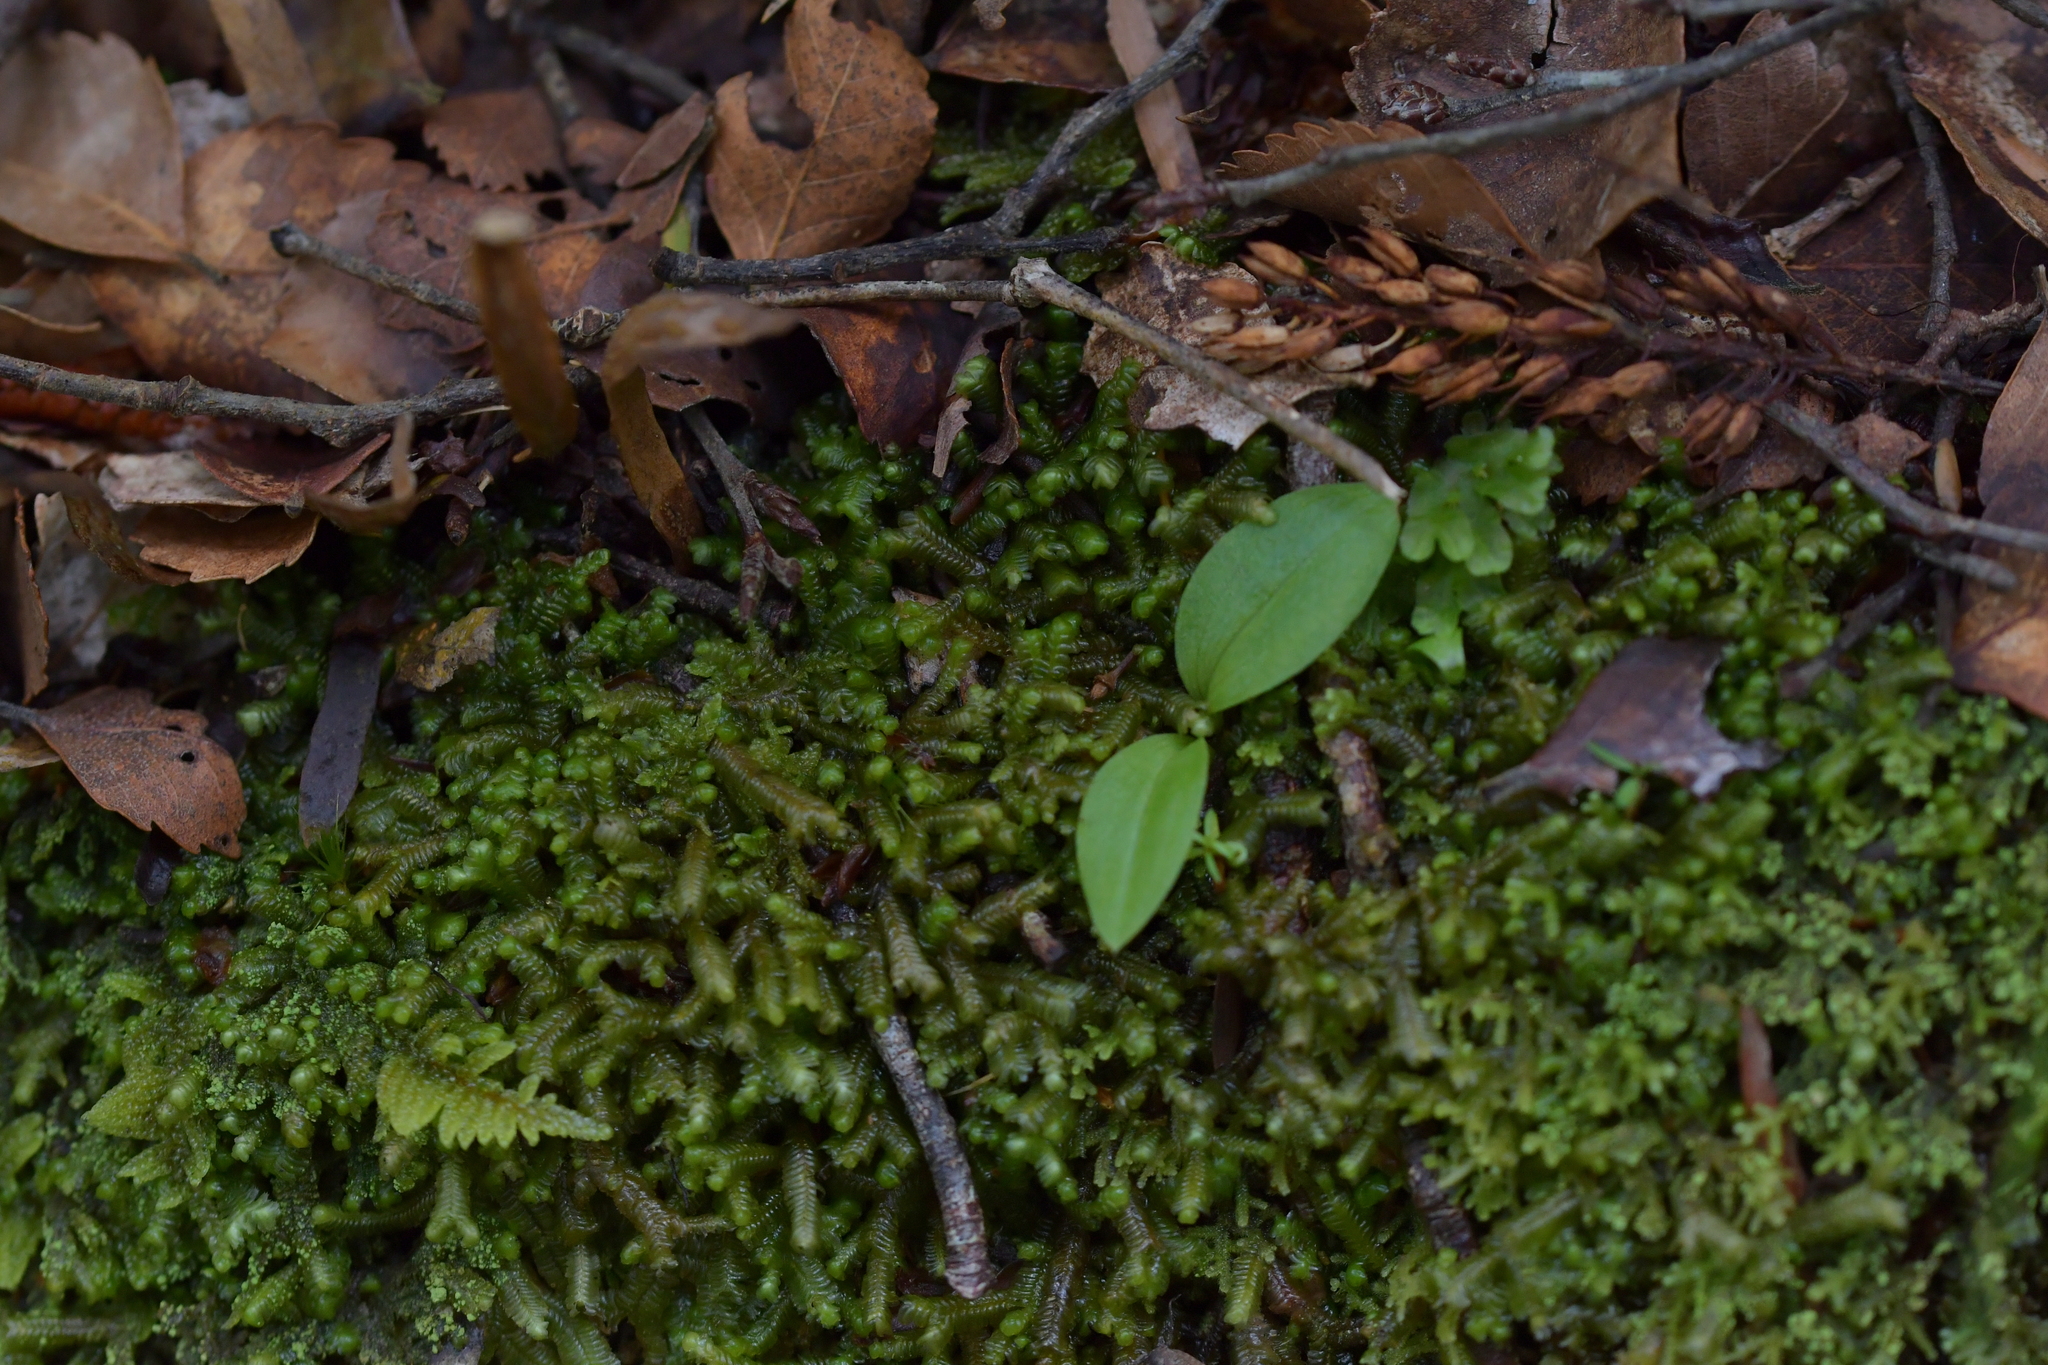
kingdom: Plantae
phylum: Tracheophyta
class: Liliopsida
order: Asparagales
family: Orchidaceae
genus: Chiloglottis
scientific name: Chiloglottis cornuta
